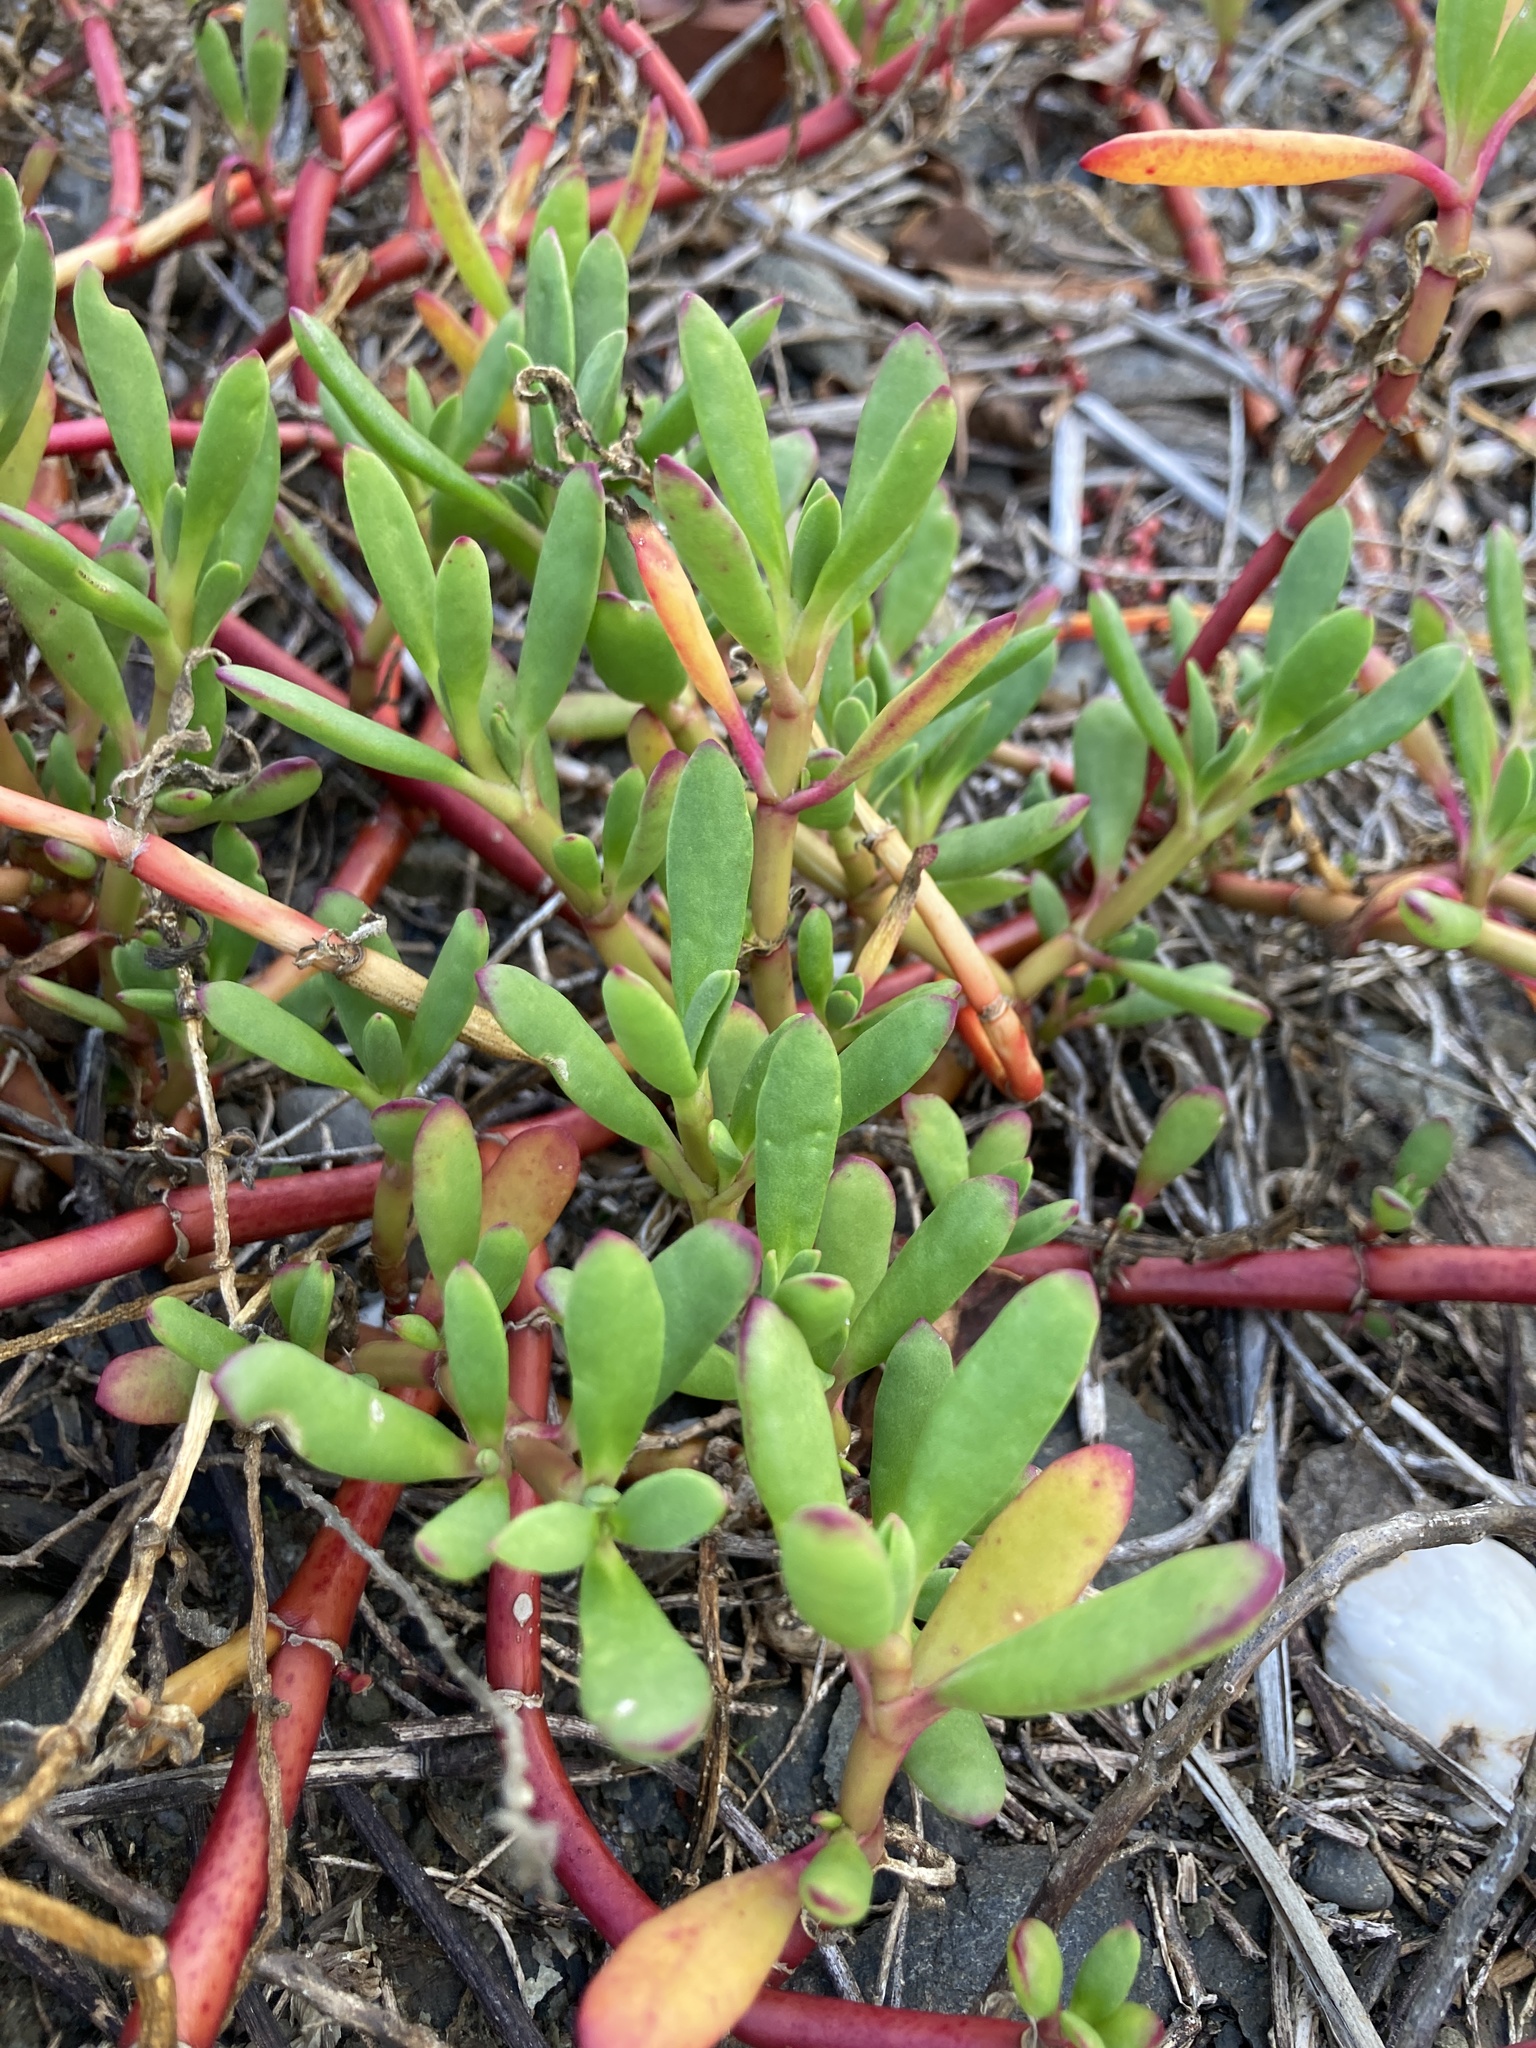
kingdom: Plantae
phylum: Tracheophyta
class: Magnoliopsida
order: Caryophyllales
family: Aizoaceae
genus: Sesuvium
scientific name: Sesuvium portulacastrum
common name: Sea-purslane
